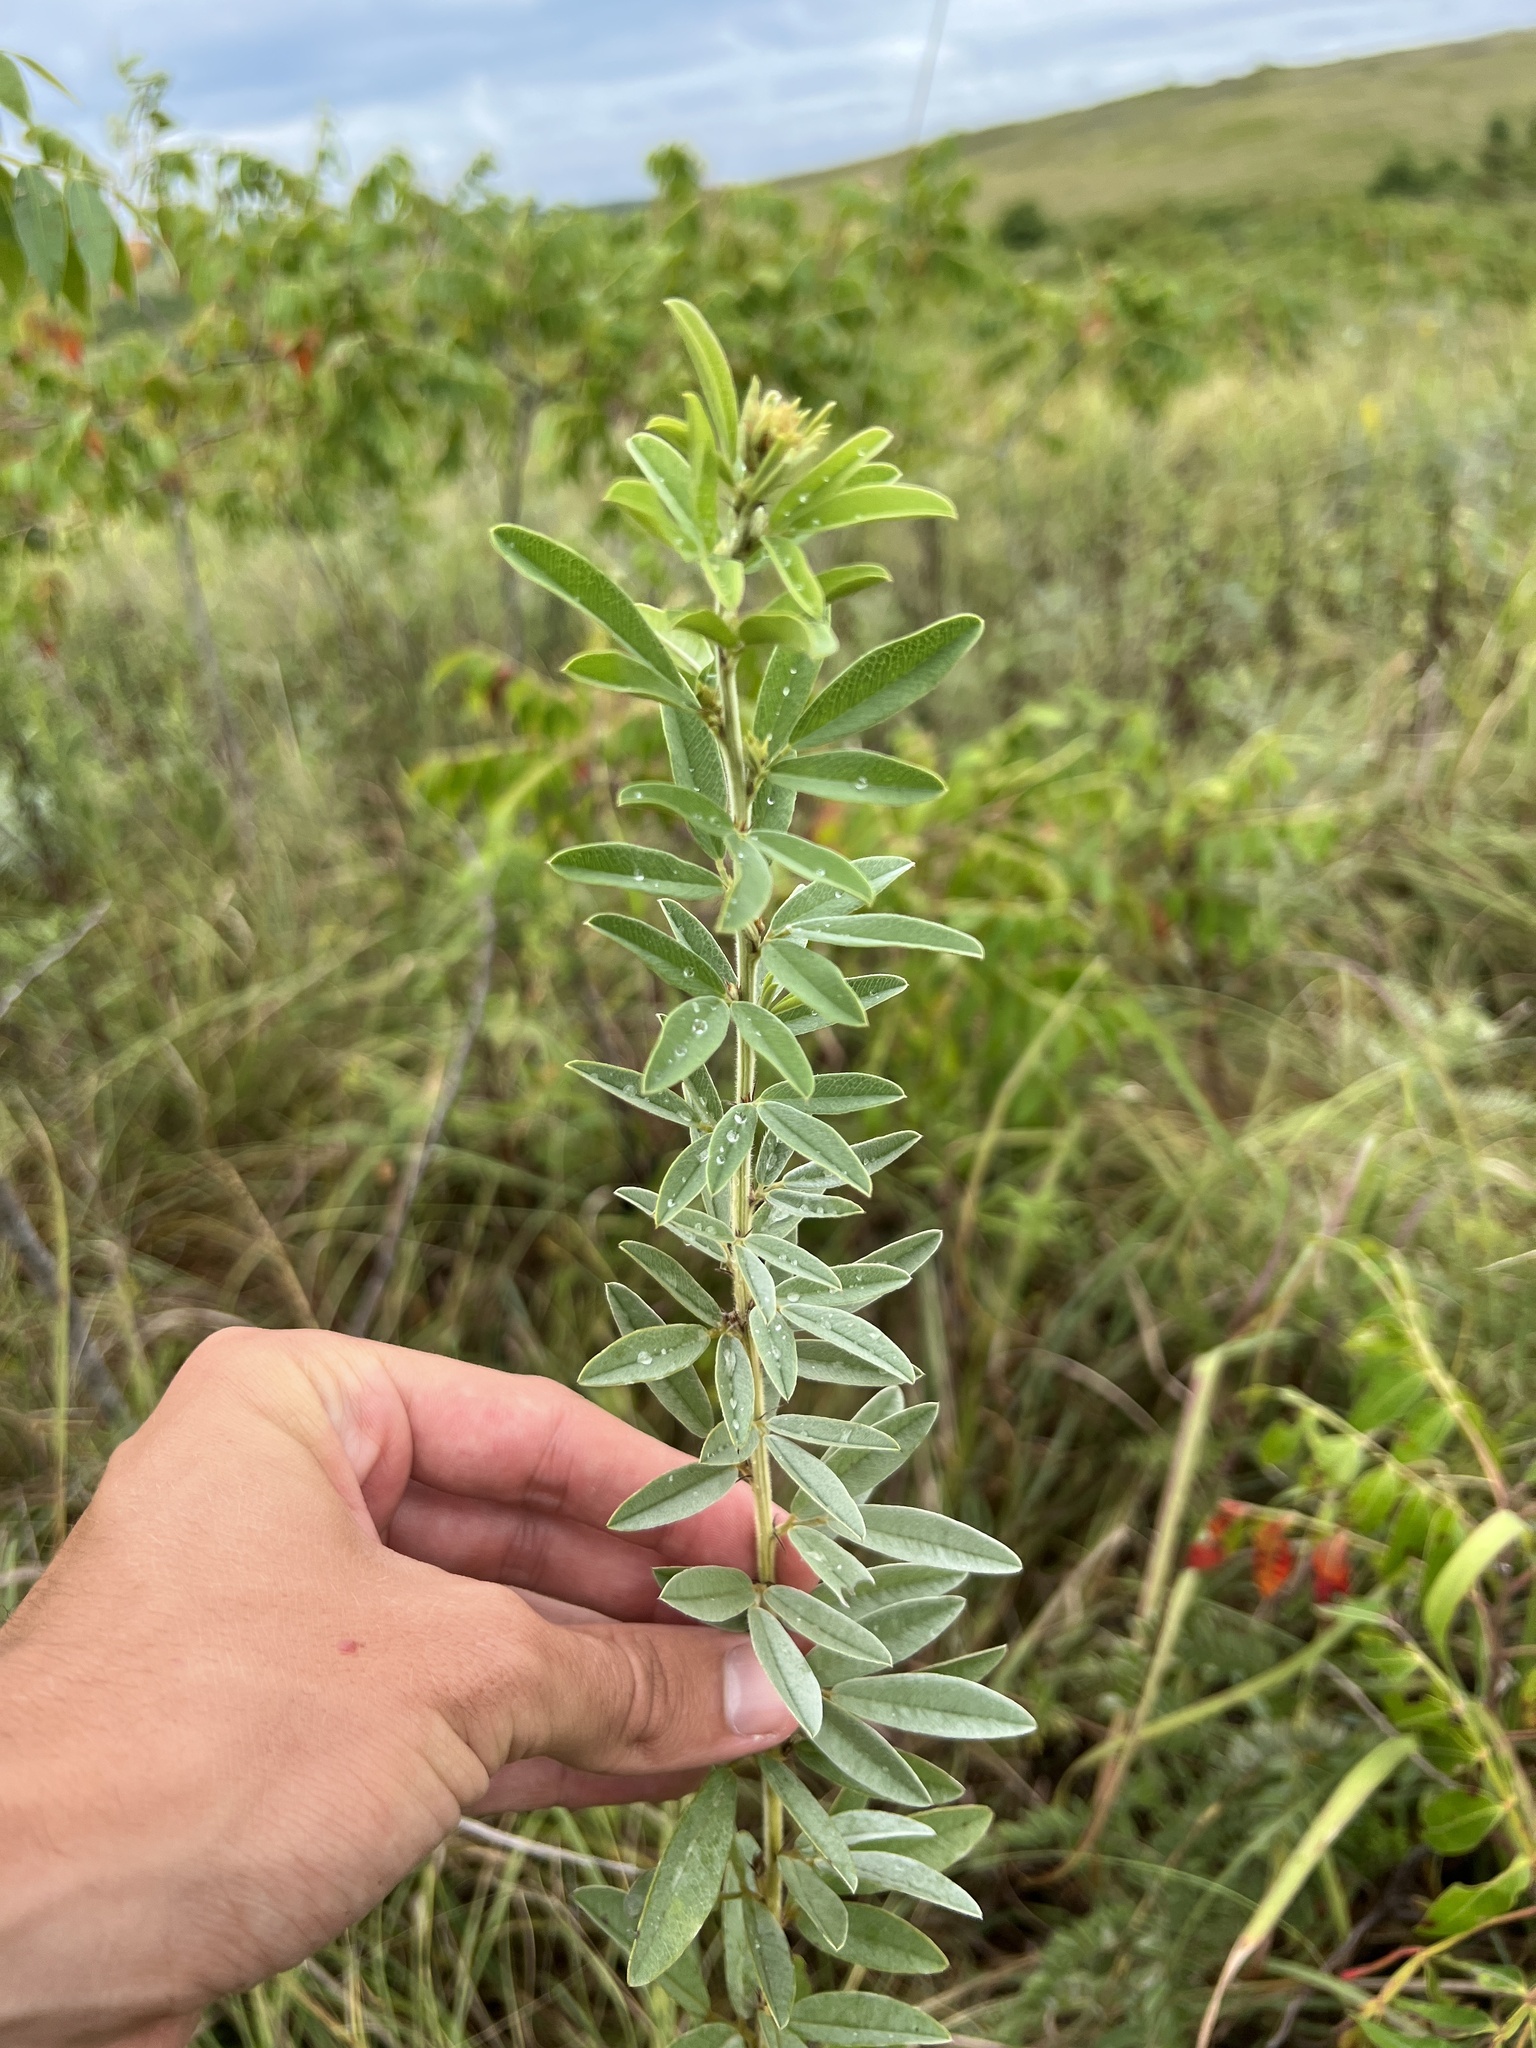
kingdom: Plantae
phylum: Tracheophyta
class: Magnoliopsida
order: Fabales
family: Fabaceae
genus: Lespedeza
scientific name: Lespedeza capitata
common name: Dusty clover
